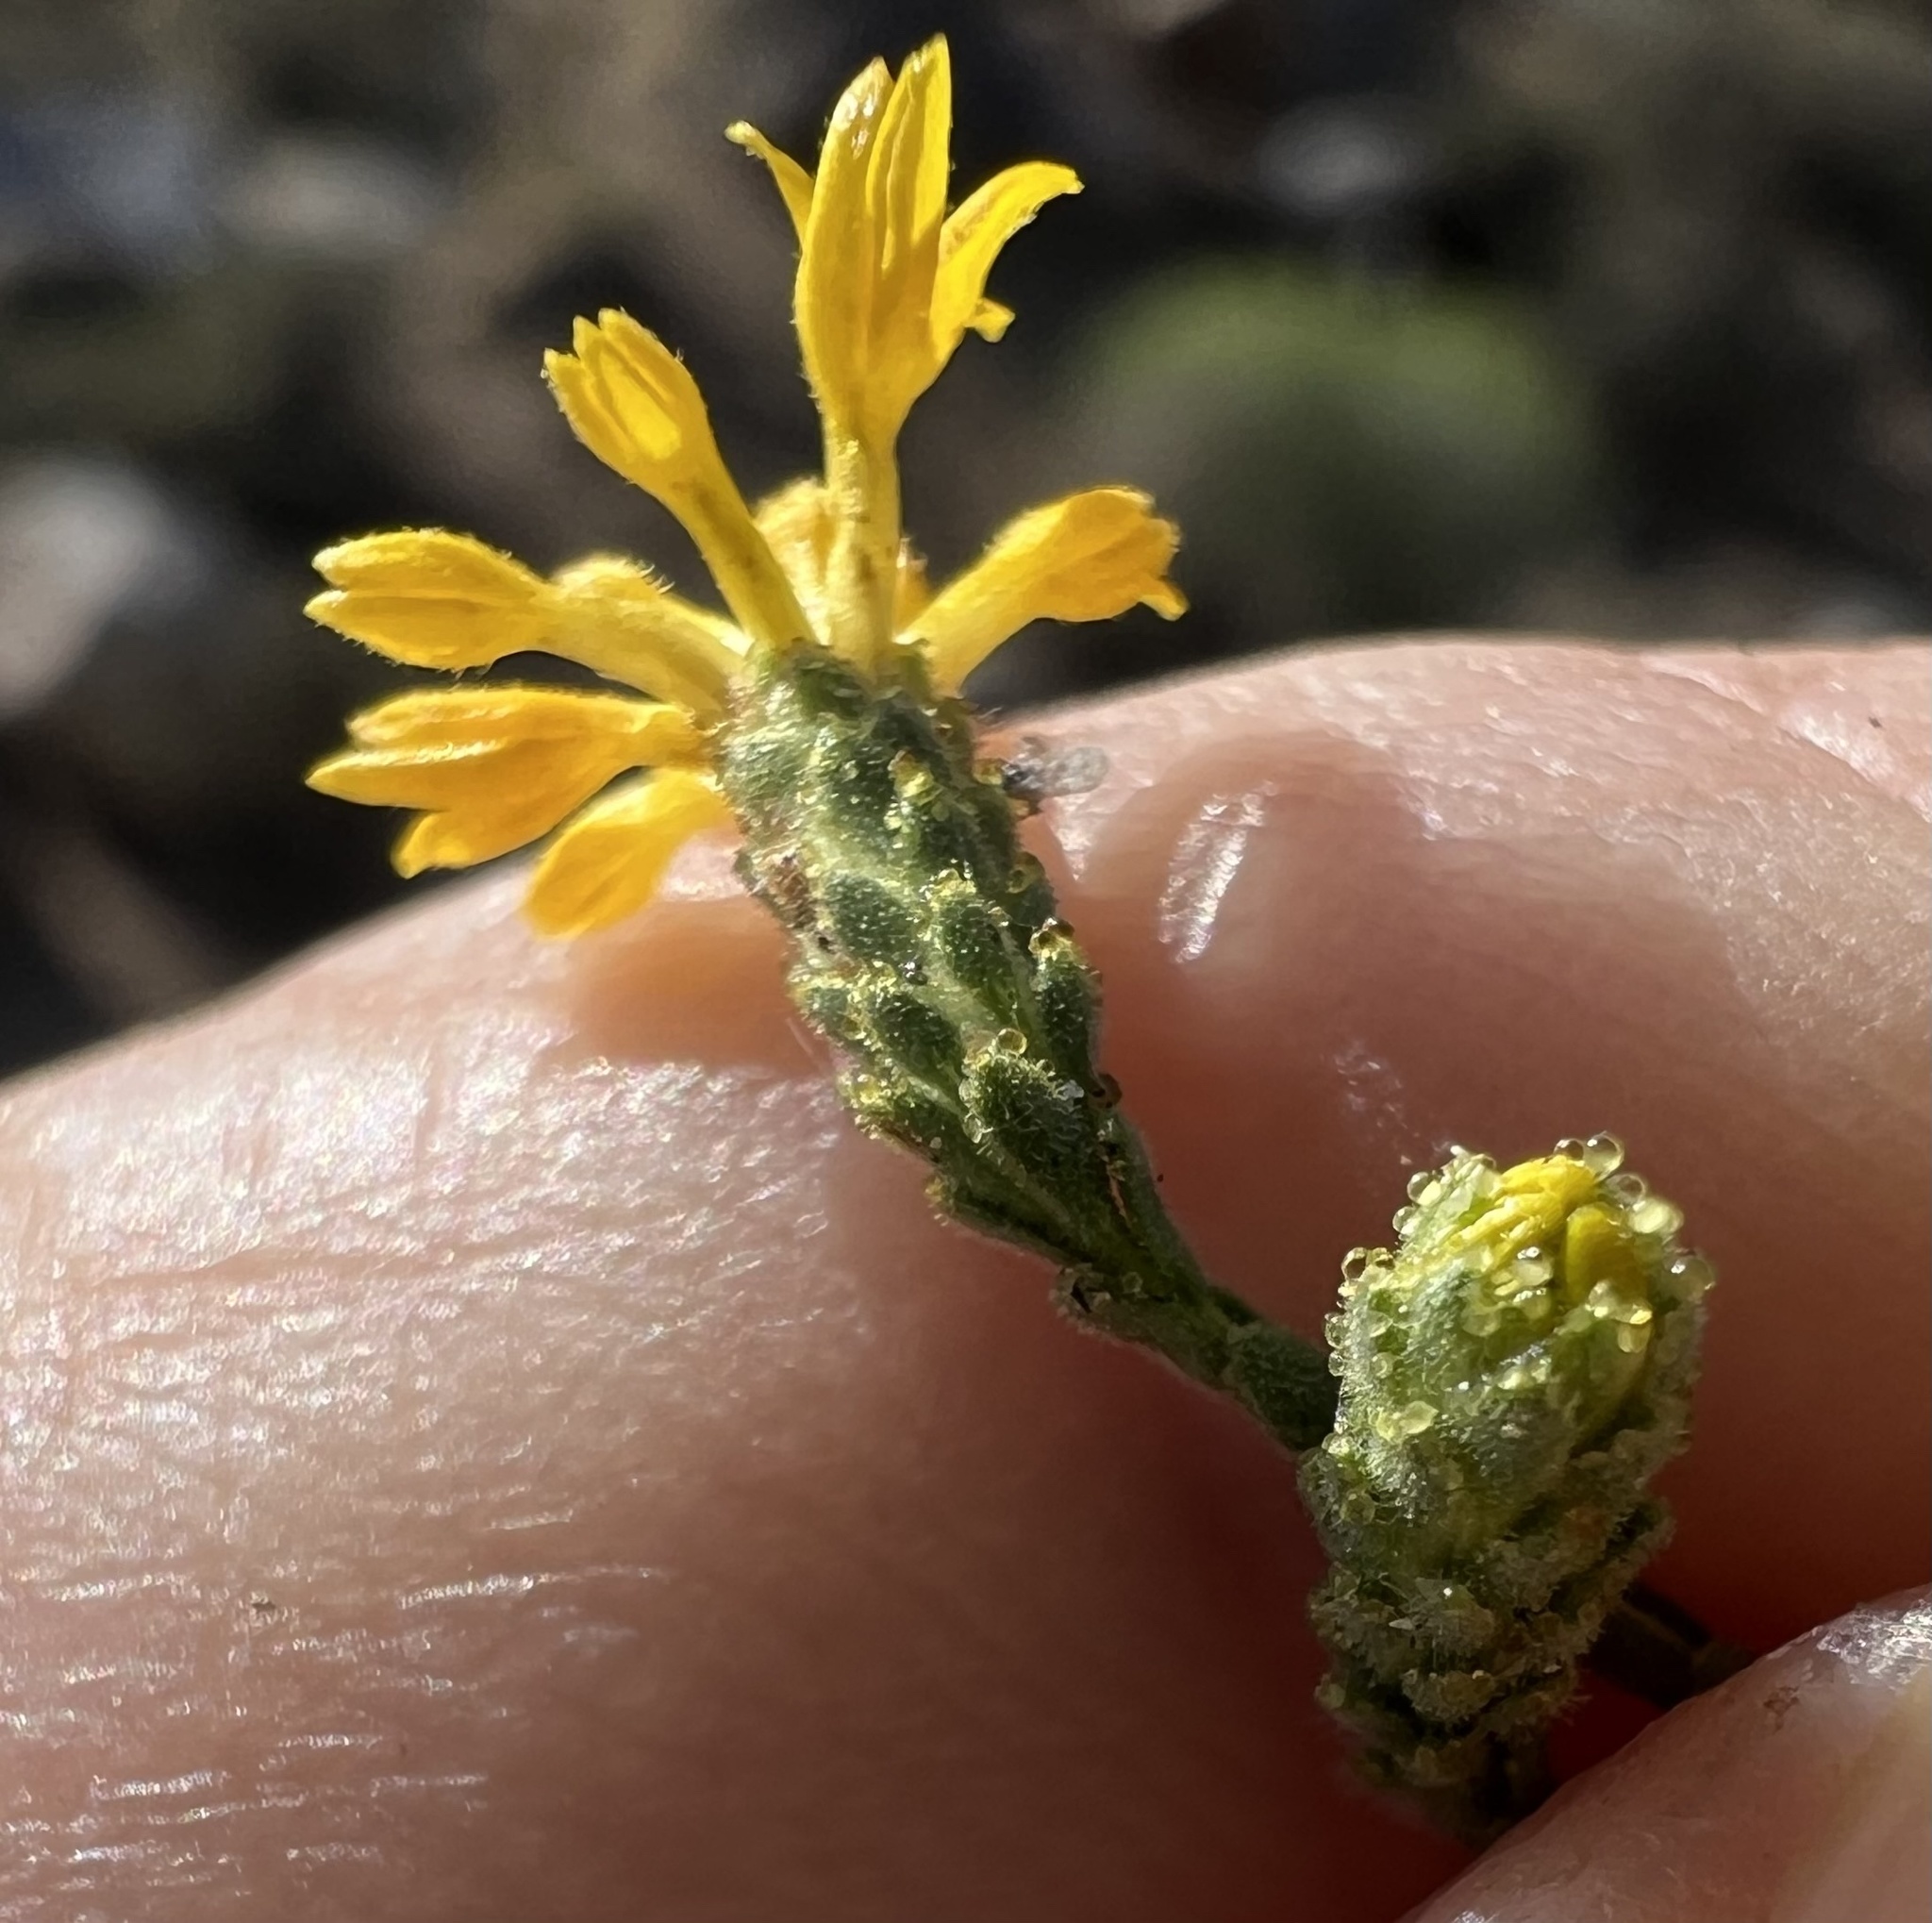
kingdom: Plantae
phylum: Tracheophyta
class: Magnoliopsida
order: Asterales
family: Asteraceae
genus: Lessingia
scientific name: Lessingia glandulifera
